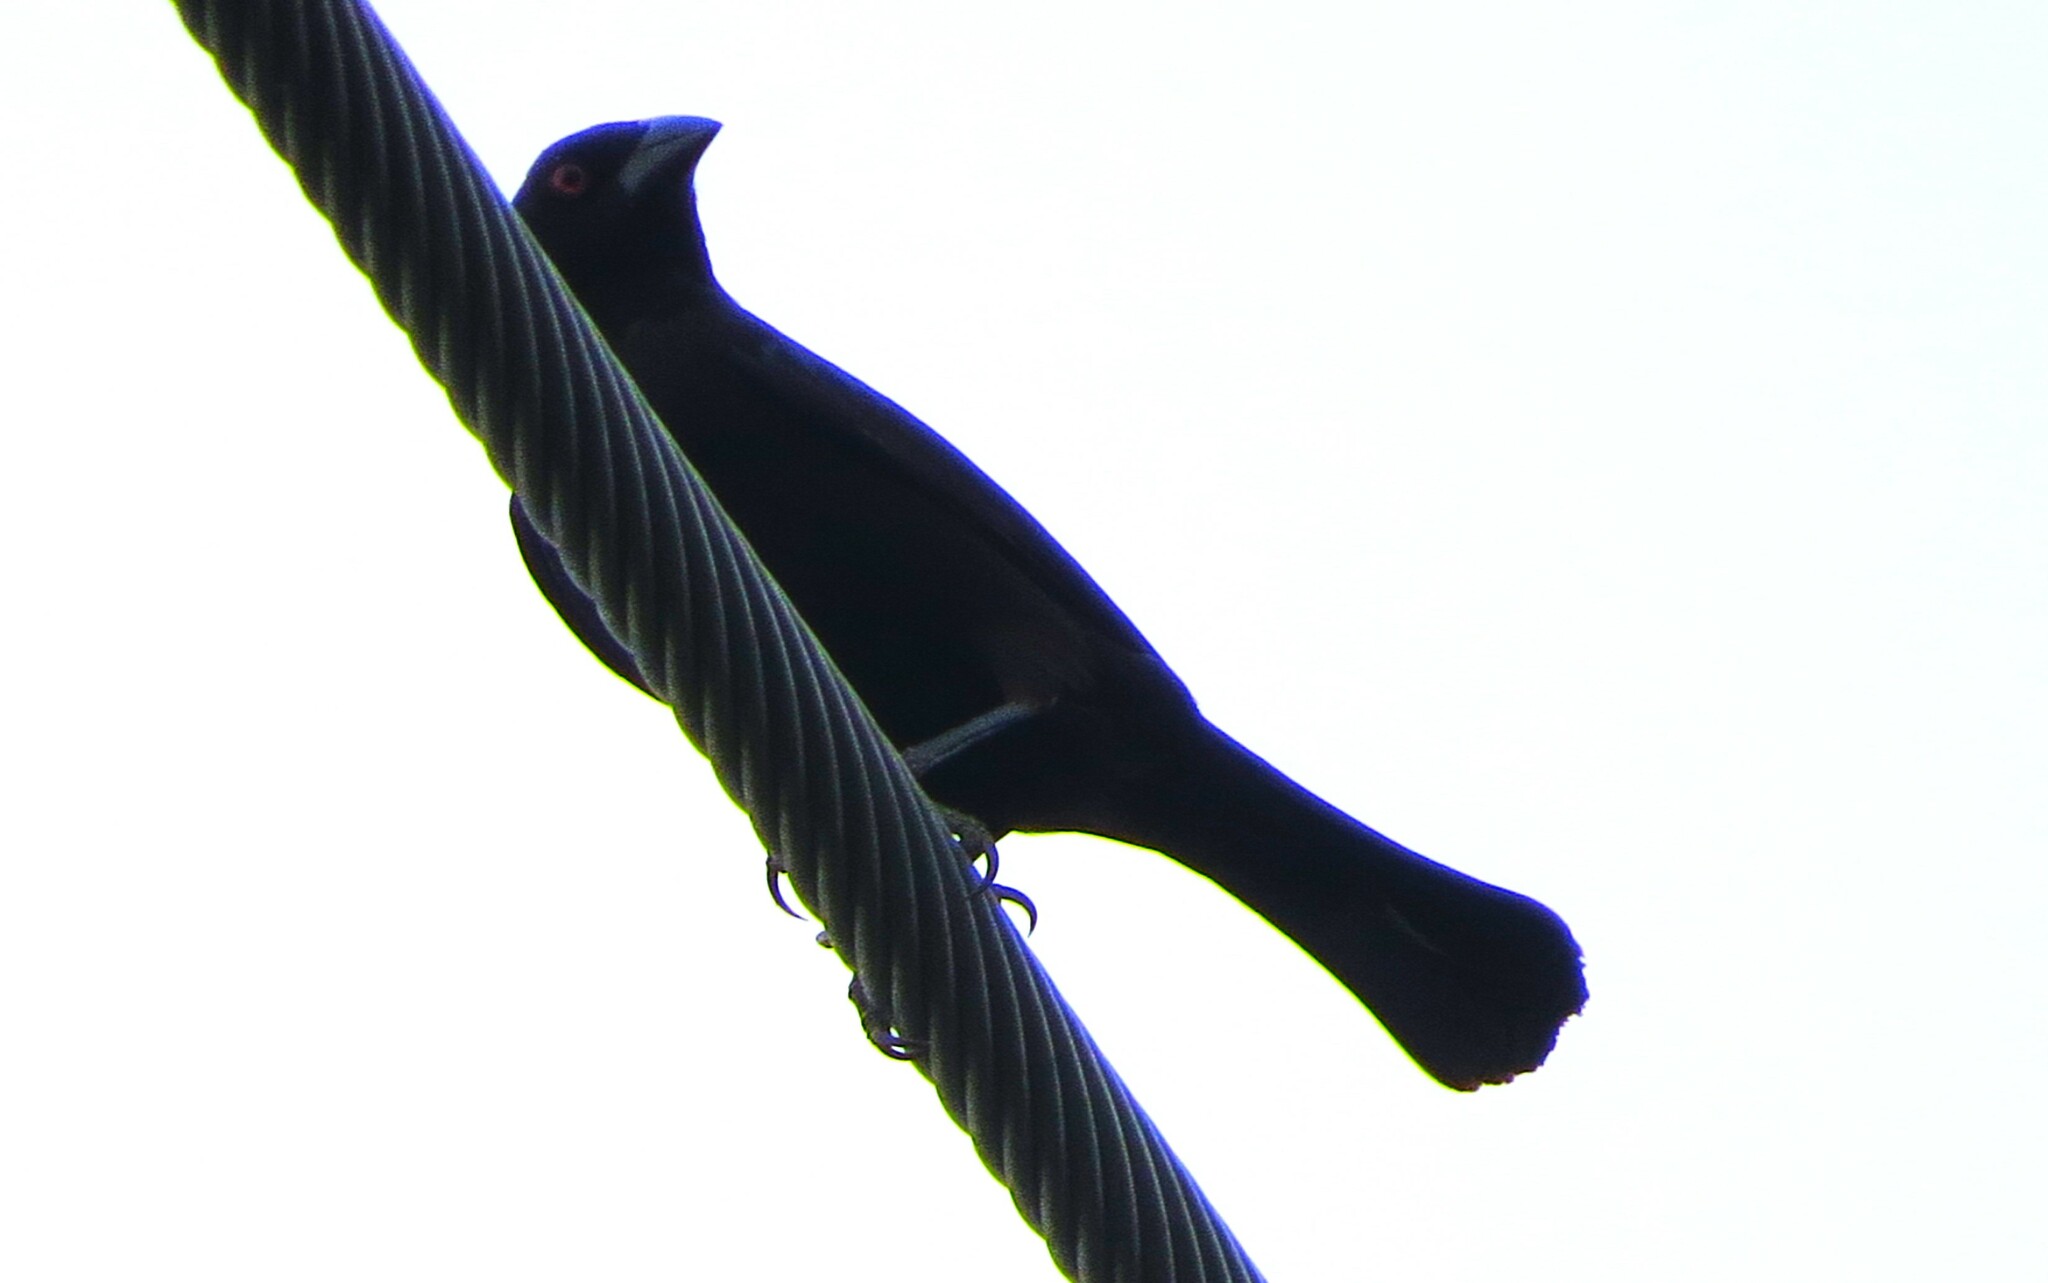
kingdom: Animalia
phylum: Chordata
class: Aves
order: Passeriformes
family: Icteridae
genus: Molothrus
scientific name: Molothrus aeneus
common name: Bronzed cowbird
